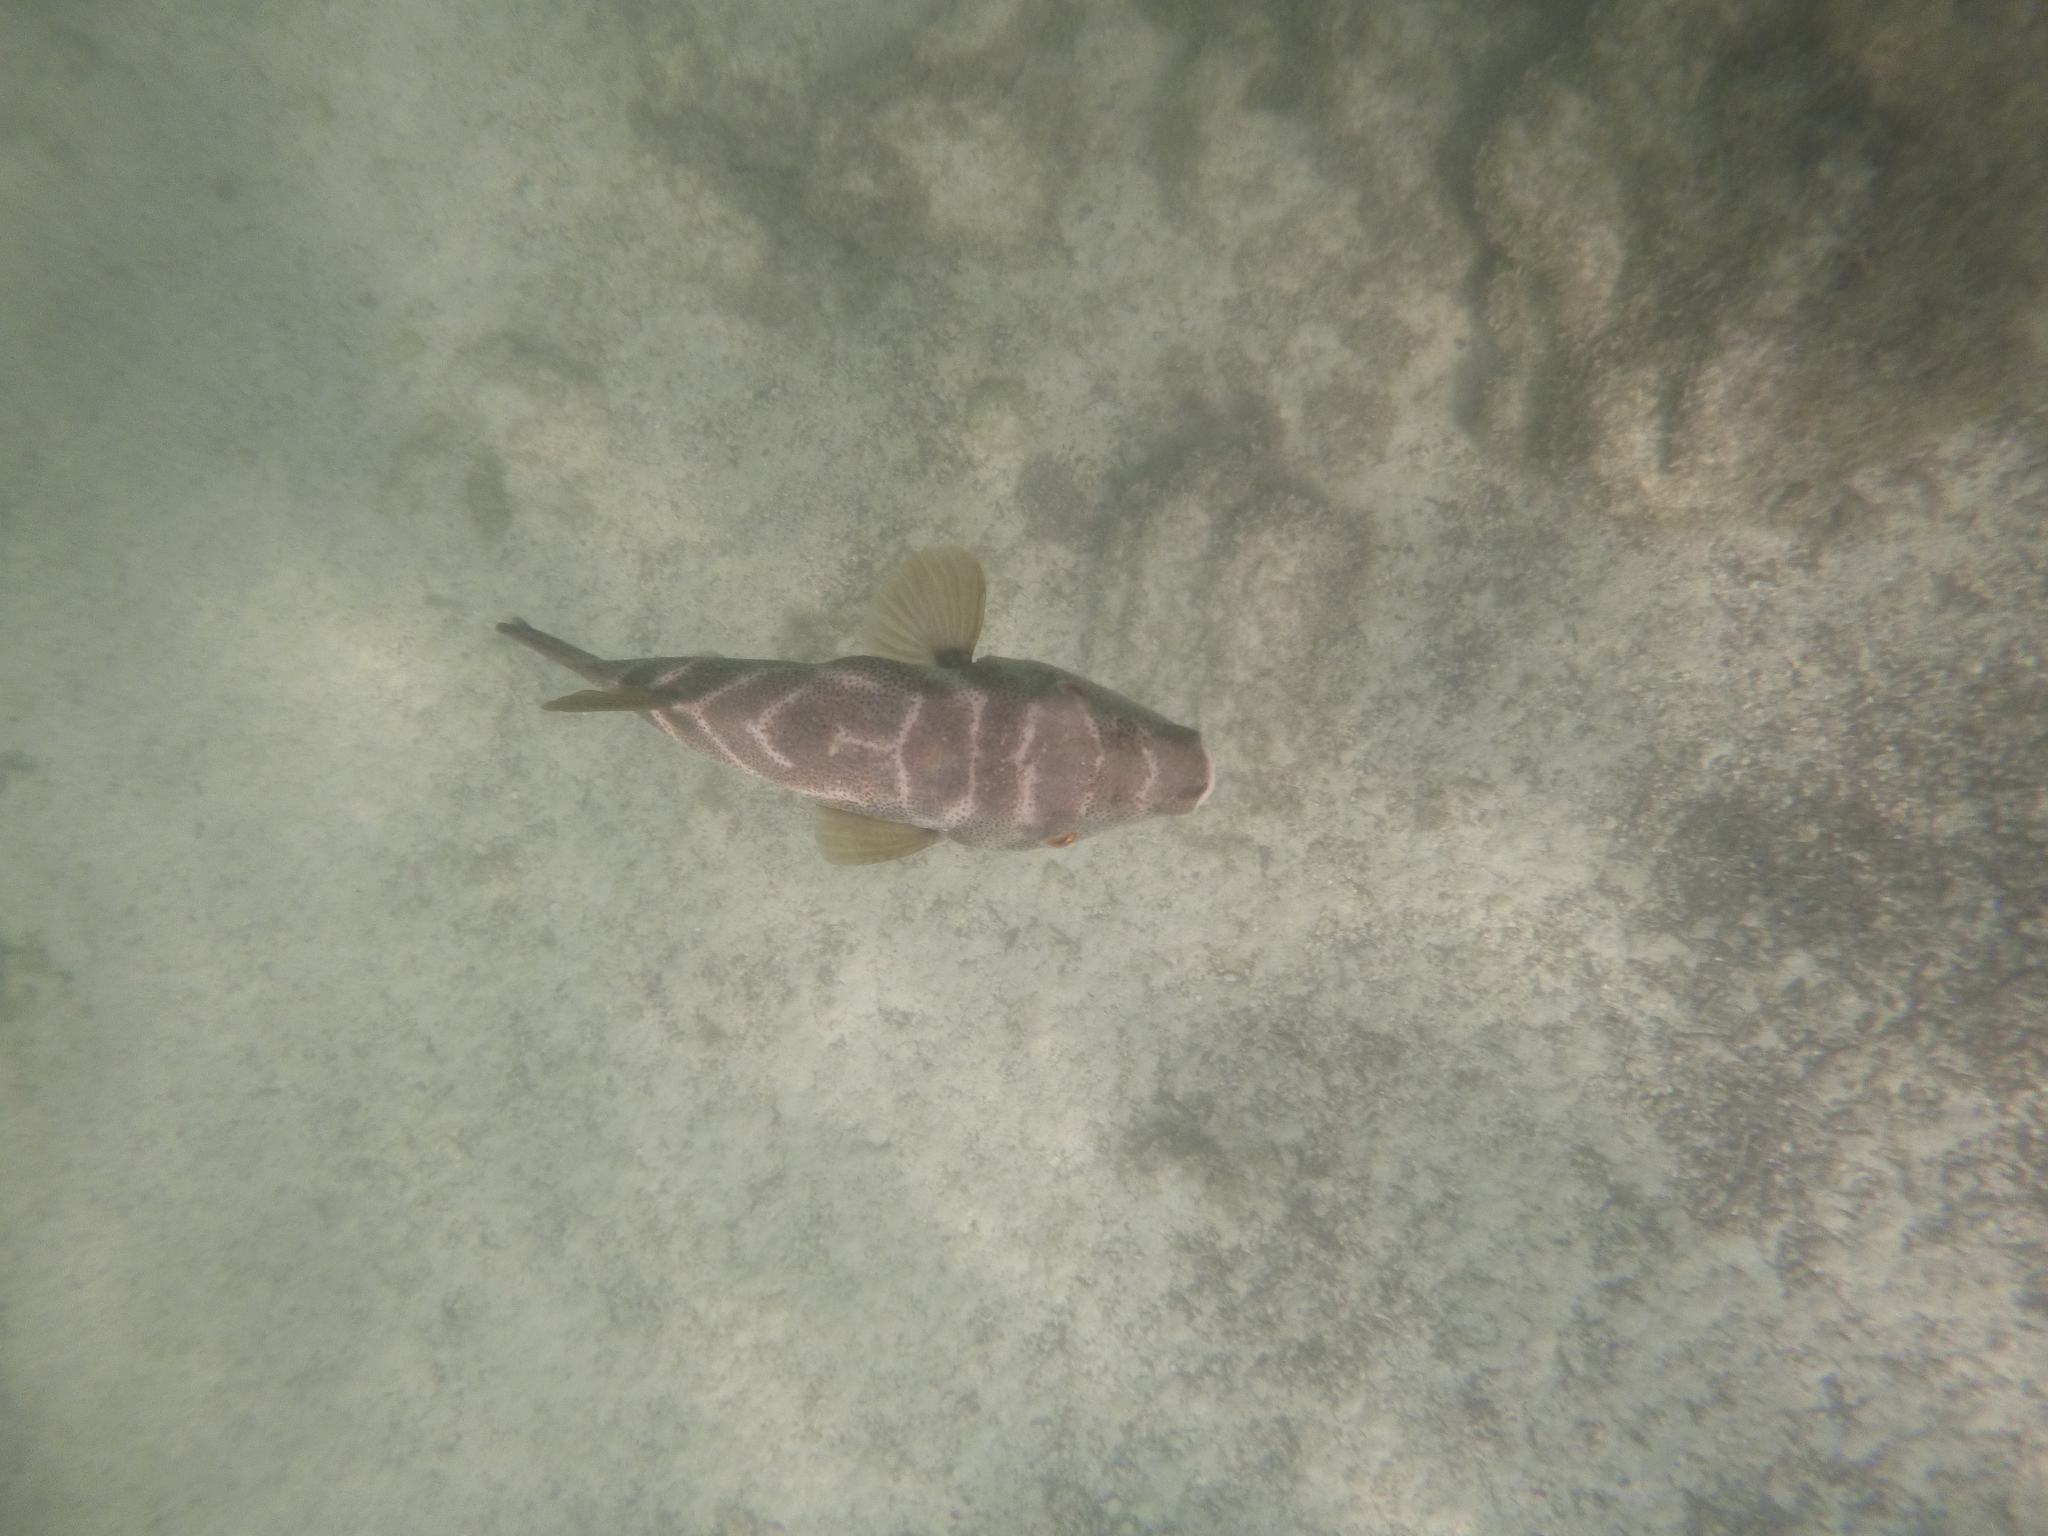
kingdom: Animalia
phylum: Chordata
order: Tetraodontiformes
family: Tetraodontidae
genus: Sphoeroides
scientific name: Sphoeroides annulatus
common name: Bullseye puffer
